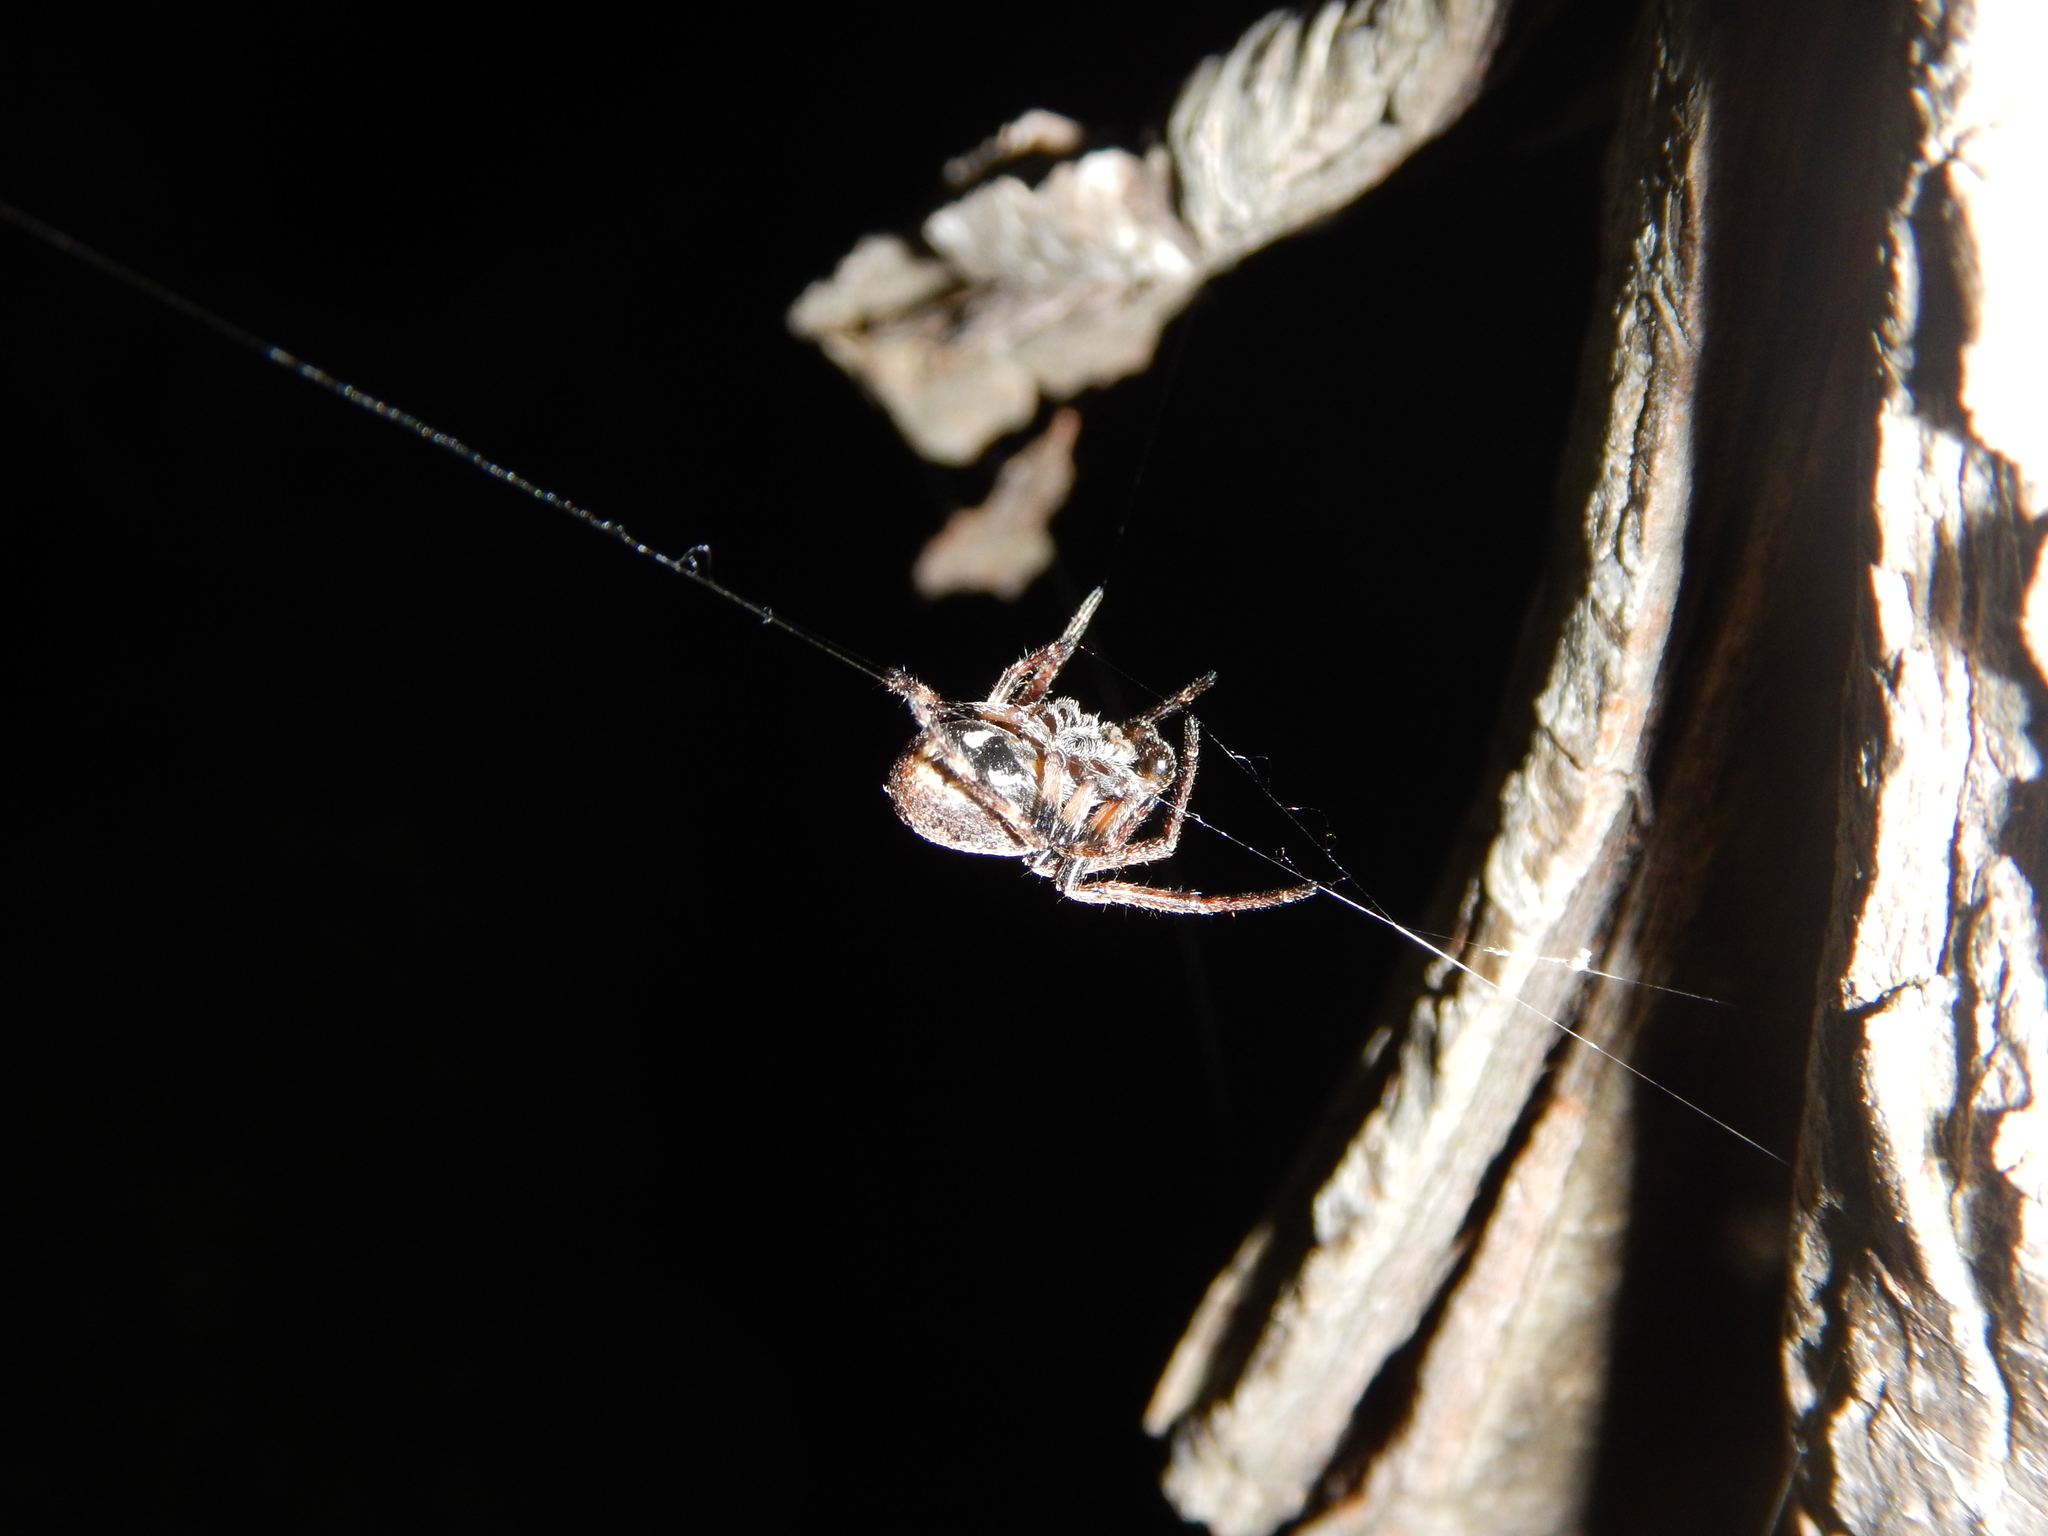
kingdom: Animalia
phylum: Arthropoda
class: Arachnida
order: Araneae
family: Araneidae
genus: Nuctenea
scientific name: Nuctenea umbratica
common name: Toad spider
